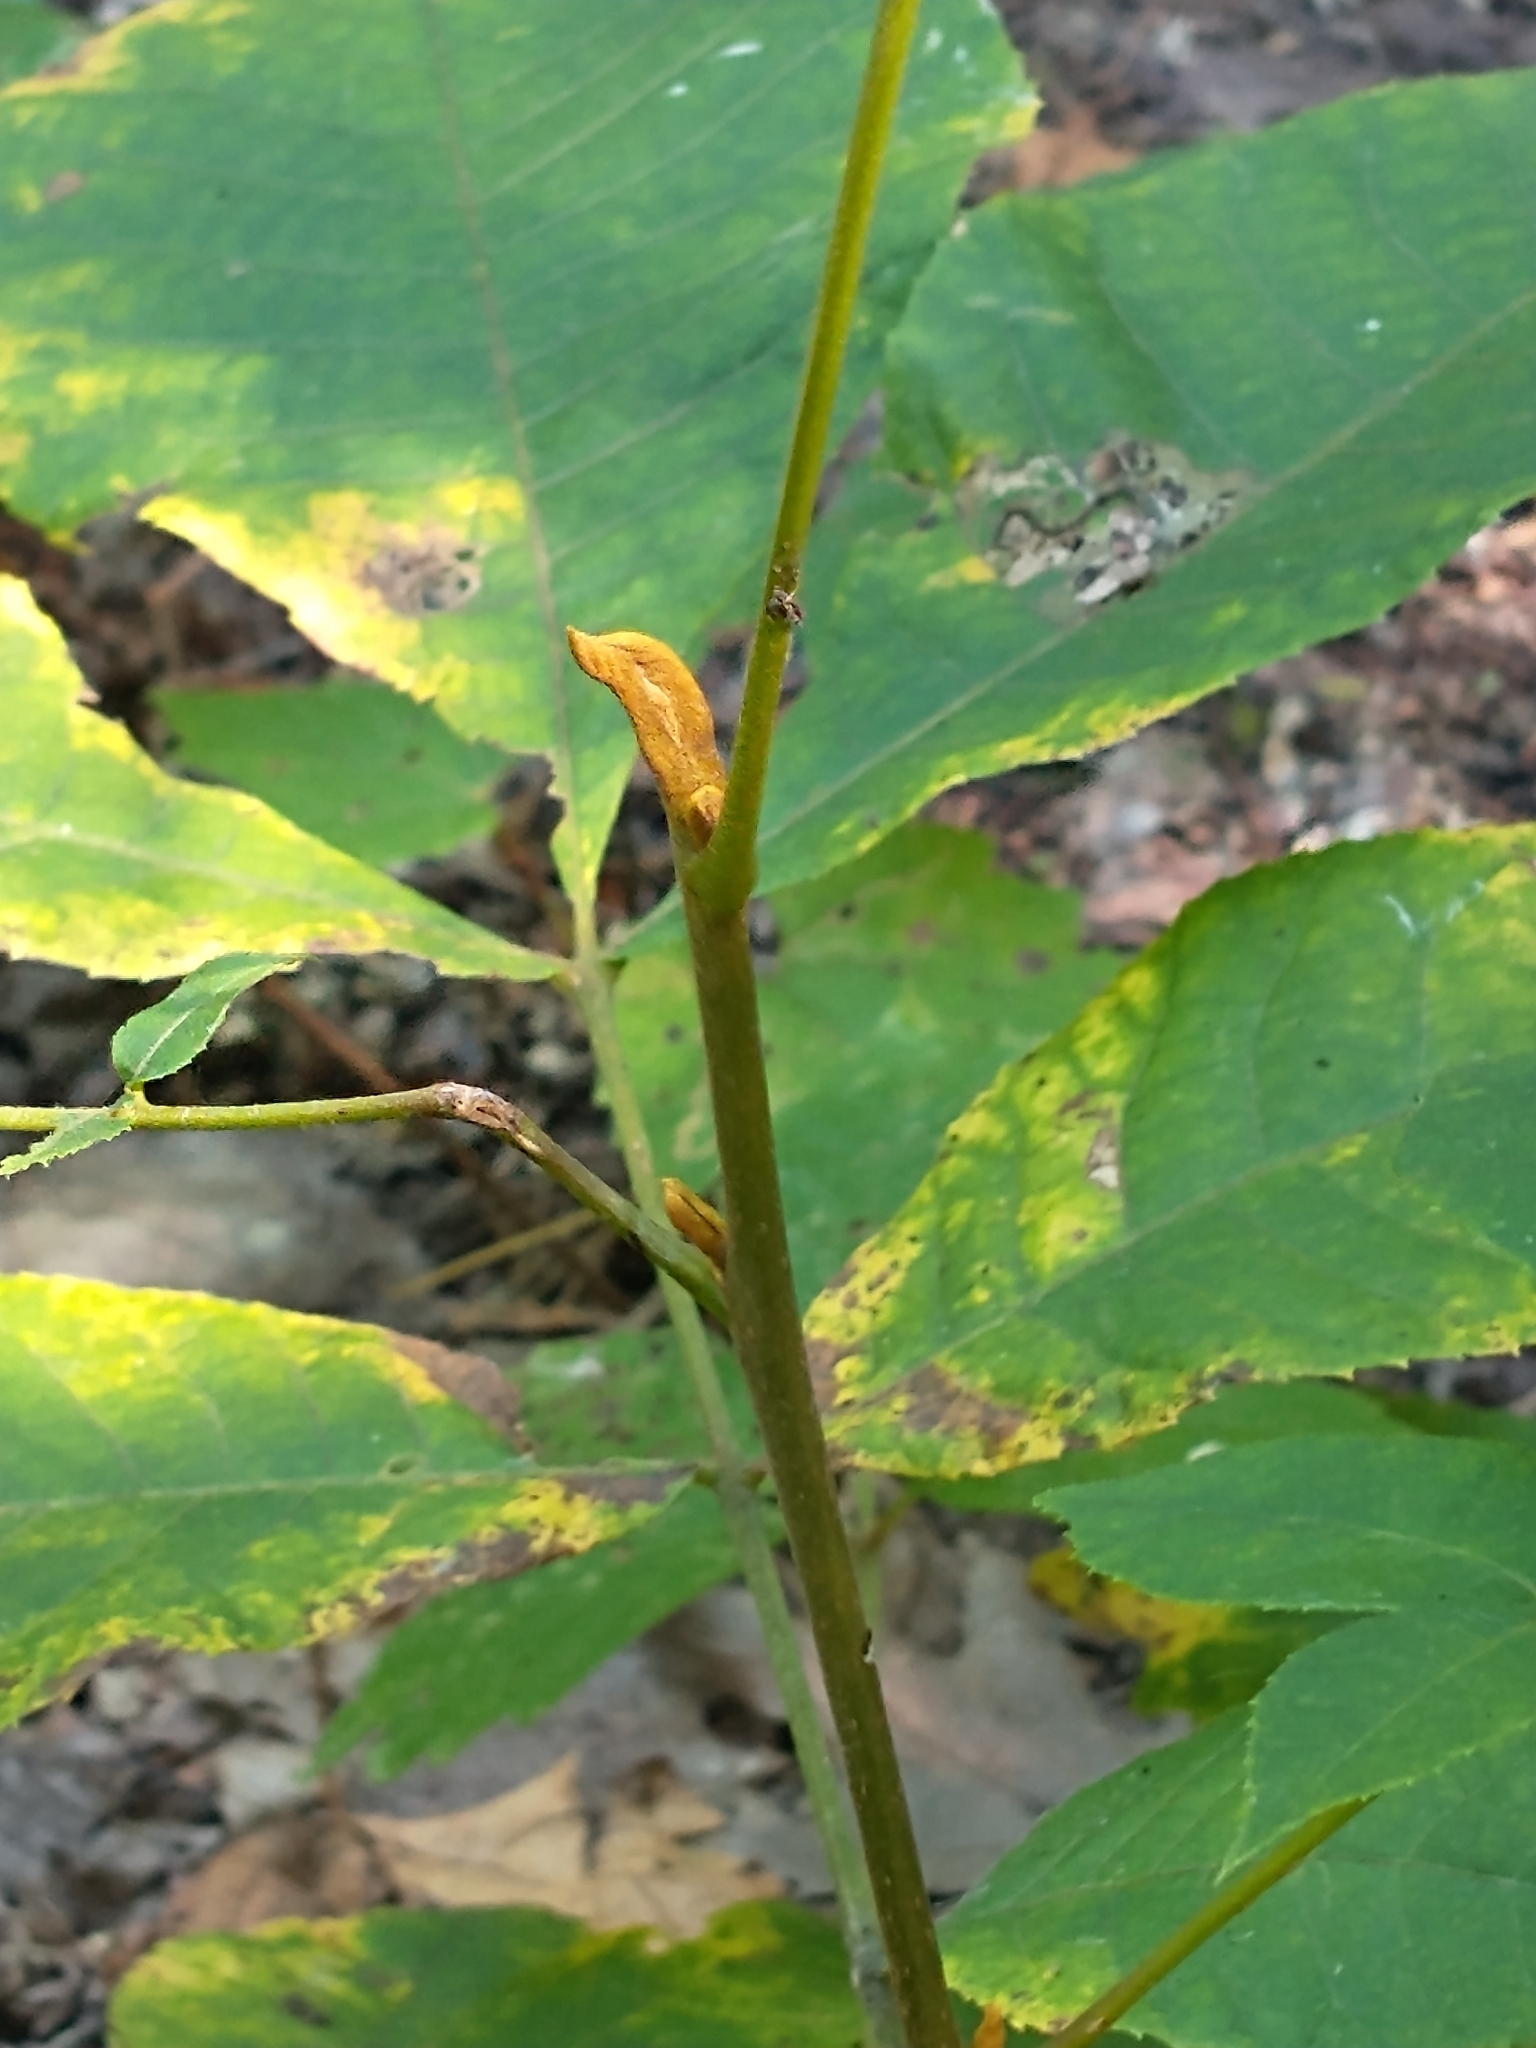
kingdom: Plantae
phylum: Tracheophyta
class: Magnoliopsida
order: Fagales
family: Juglandaceae
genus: Carya
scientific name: Carya cordiformis
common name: Bitternut hickory
